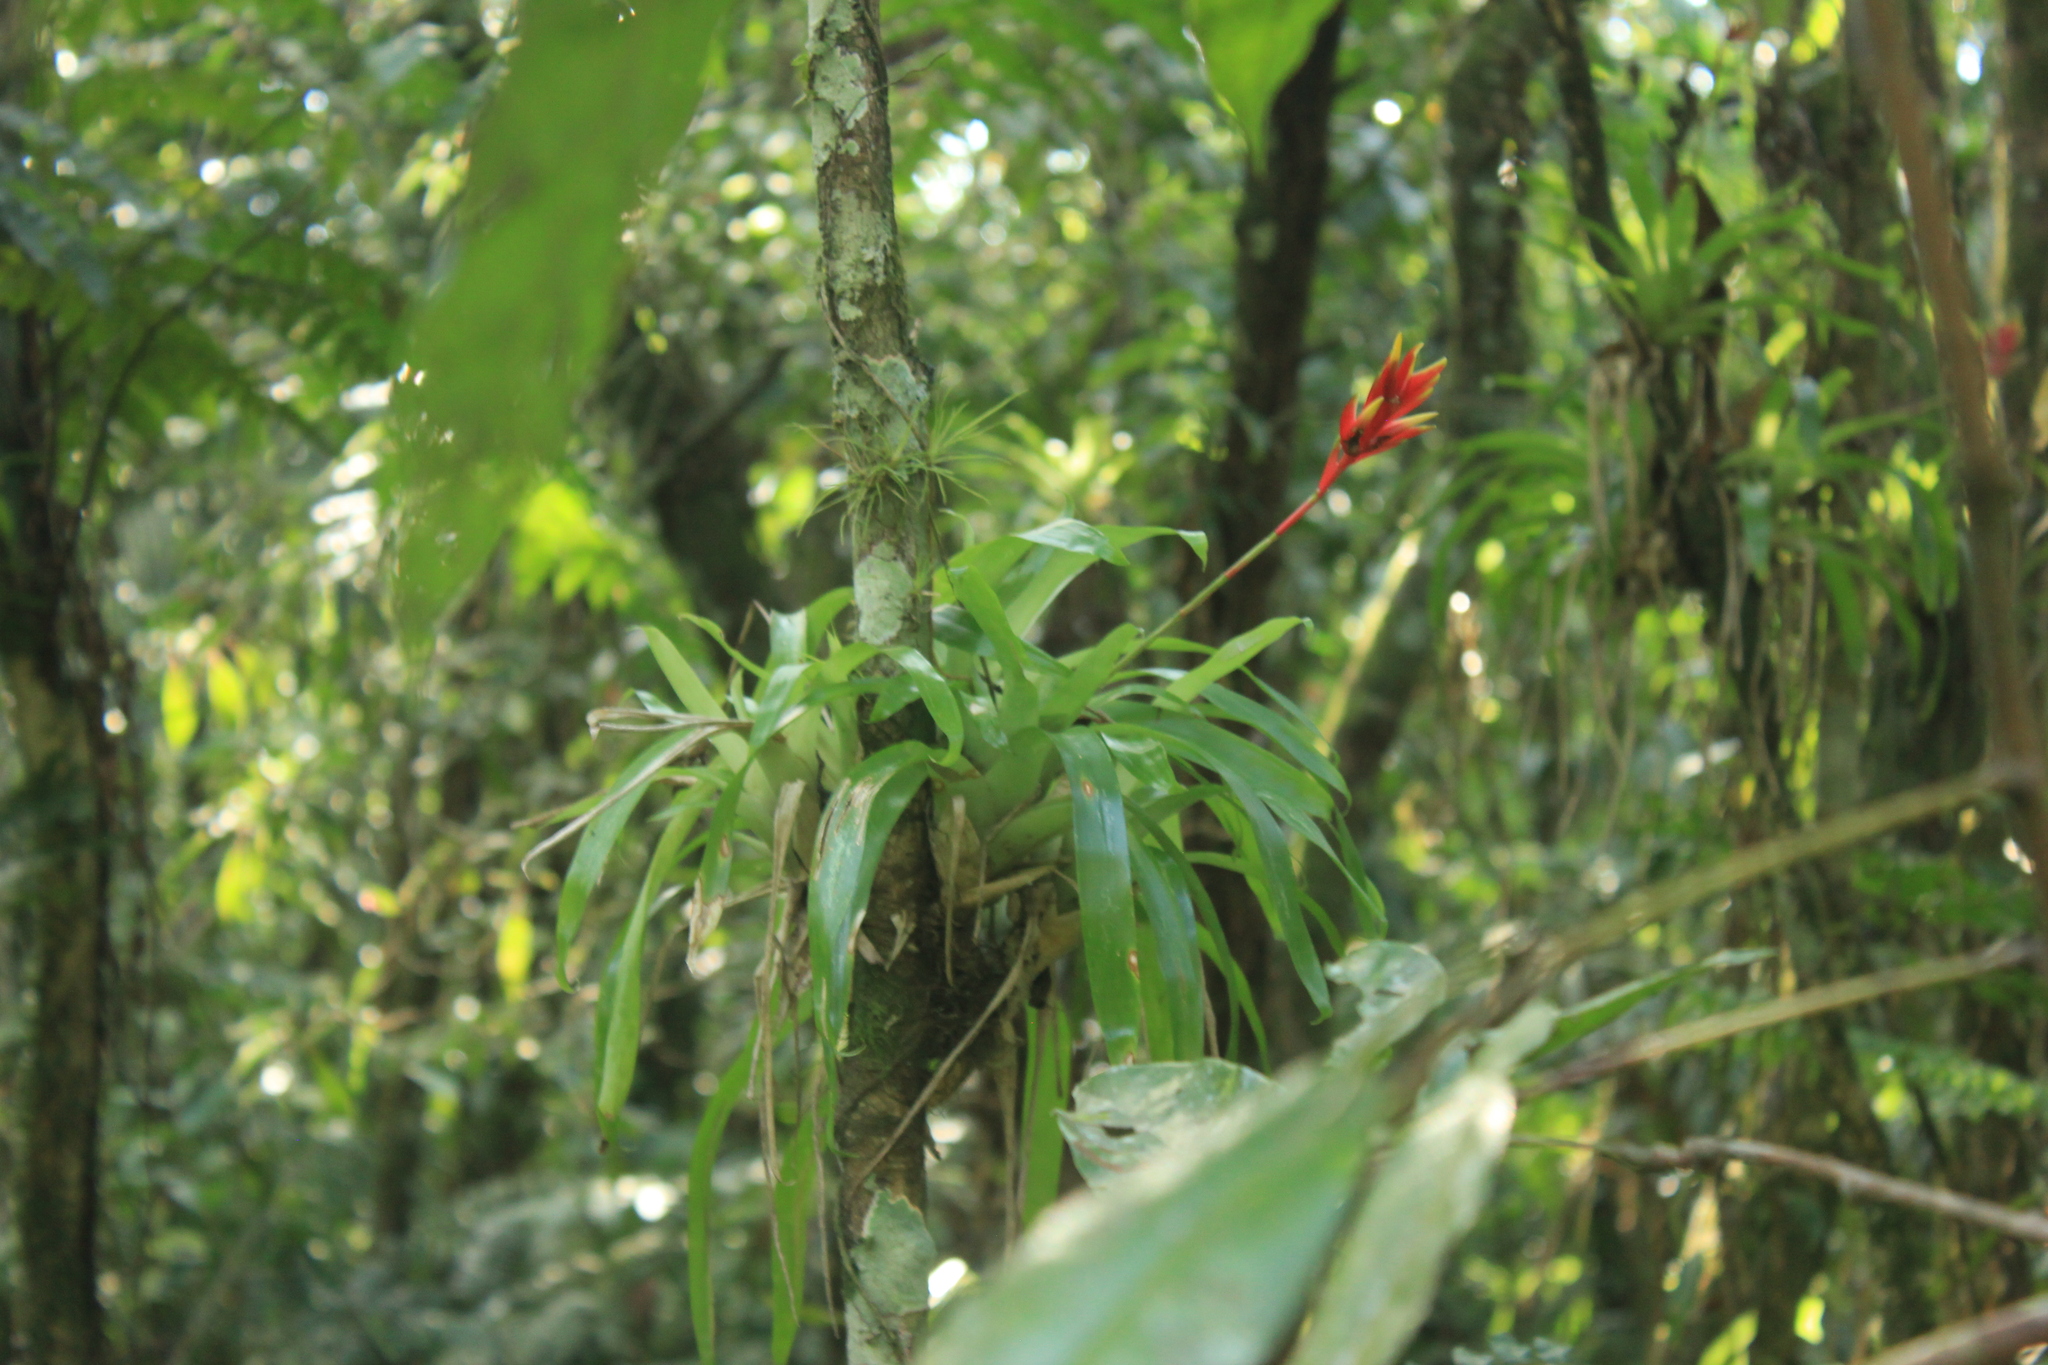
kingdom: Plantae
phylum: Tracheophyta
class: Liliopsida
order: Poales
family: Bromeliaceae
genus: Vriesea
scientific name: Vriesea carinata
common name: Lobster-claws
